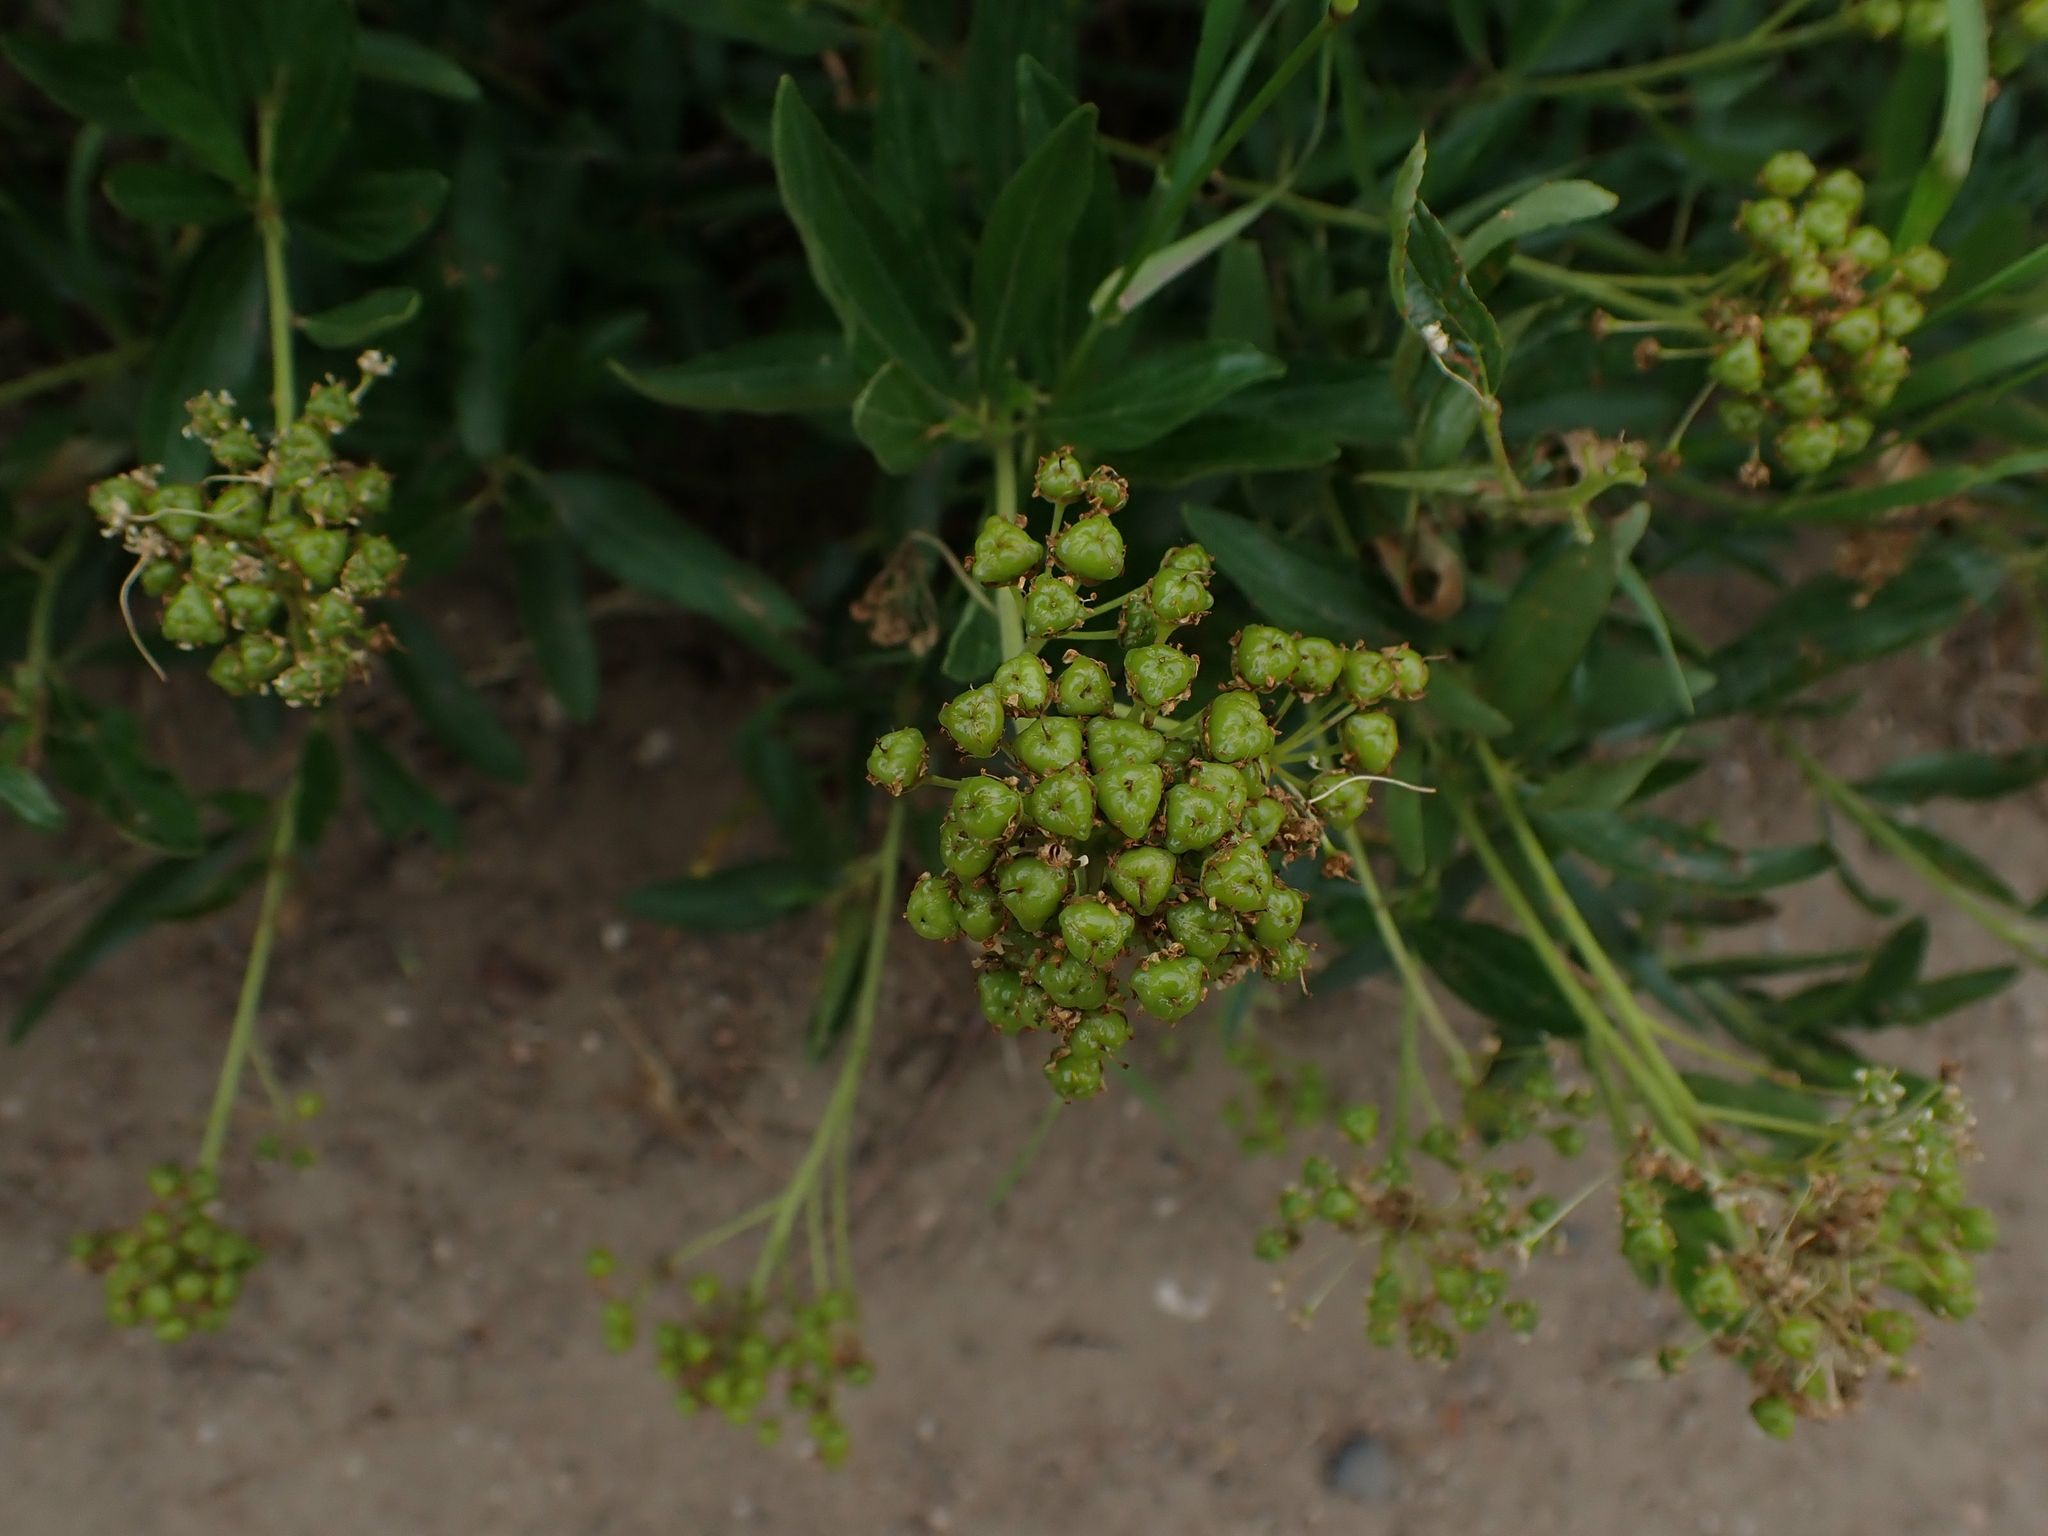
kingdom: Plantae
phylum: Tracheophyta
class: Magnoliopsida
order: Rosales
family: Rhamnaceae
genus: Ceanothus
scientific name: Ceanothus herbaceus
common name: Inland ceanothus
